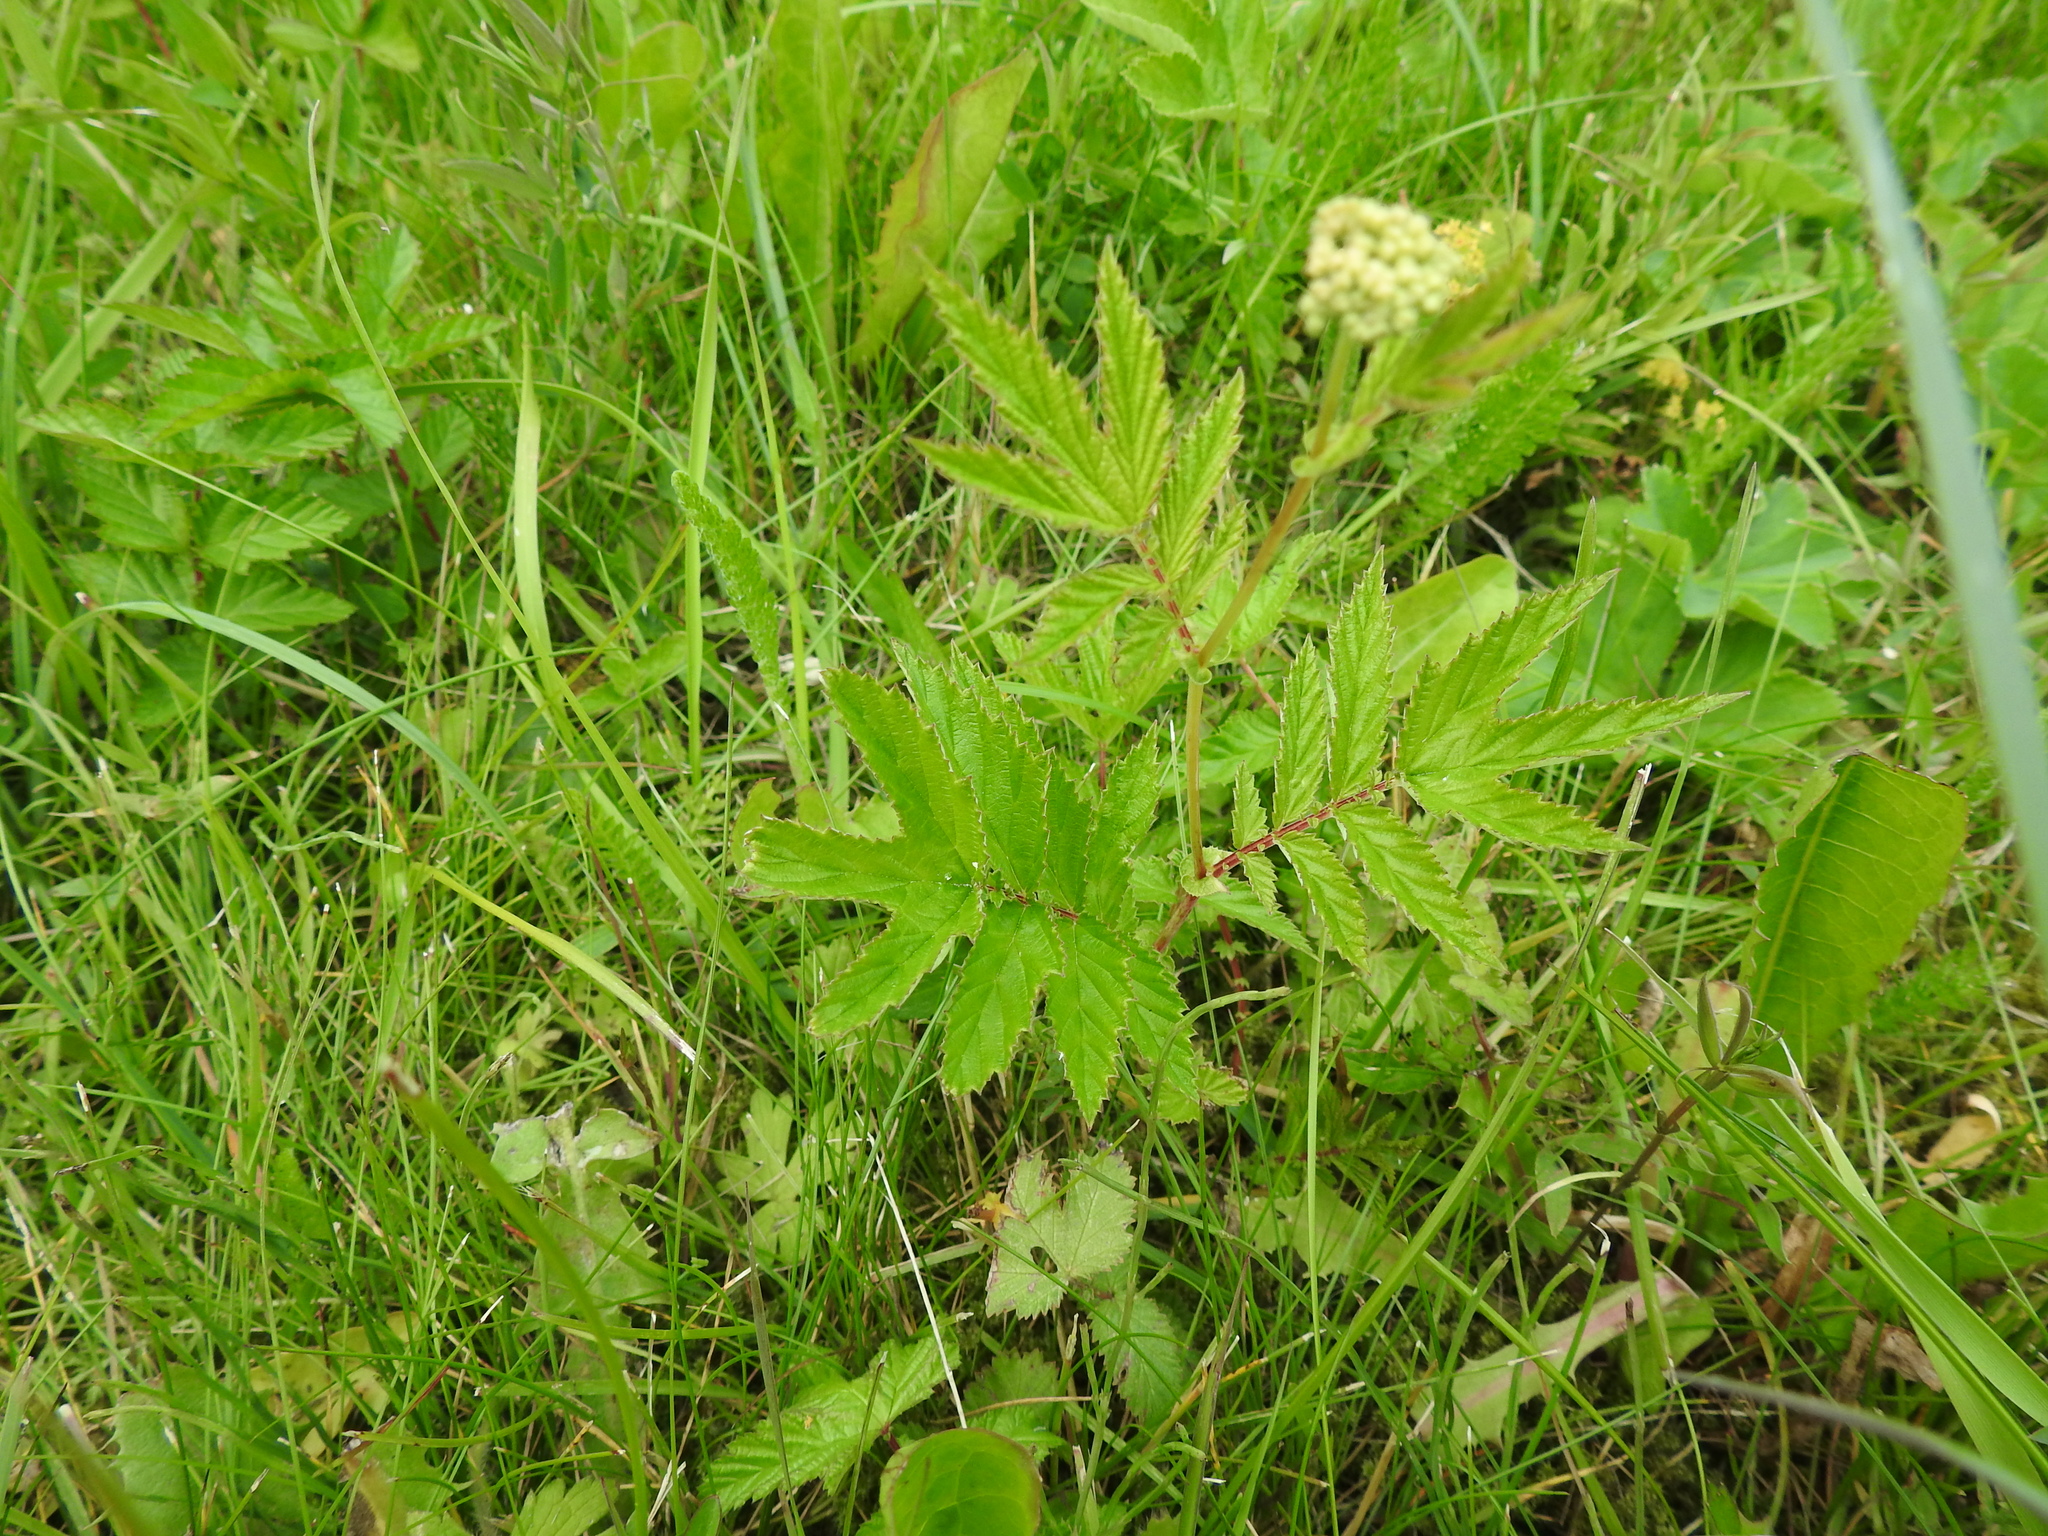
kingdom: Plantae
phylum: Tracheophyta
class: Magnoliopsida
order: Rosales
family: Rosaceae
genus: Filipendula
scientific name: Filipendula ulmaria
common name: Meadowsweet
